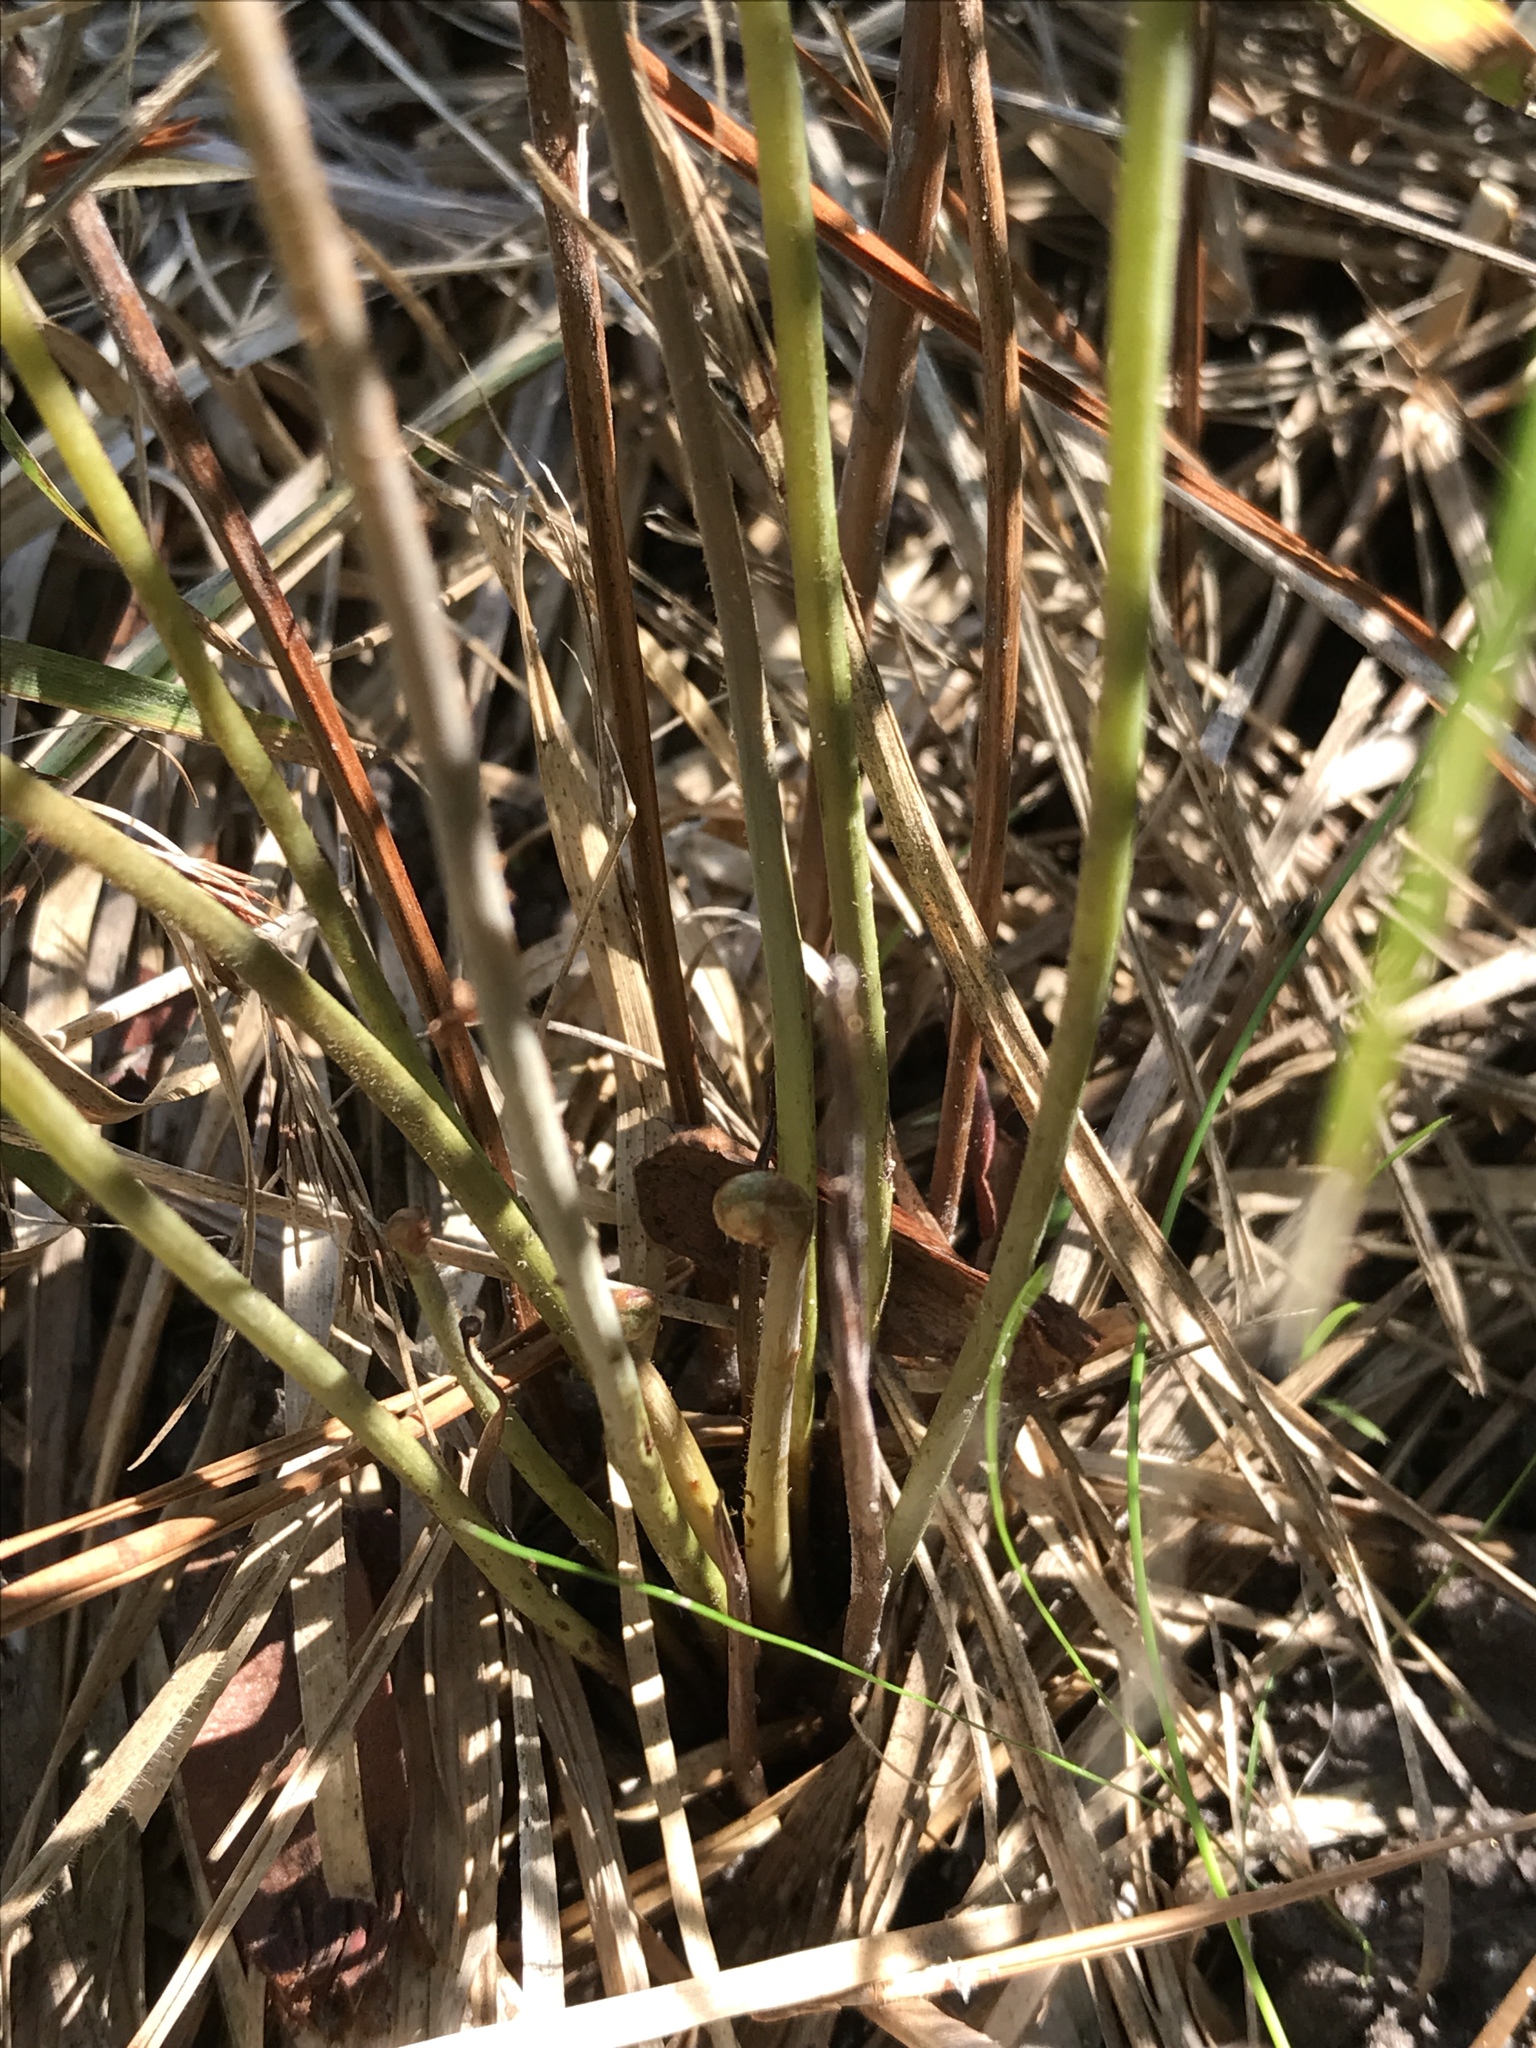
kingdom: Plantae
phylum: Tracheophyta
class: Polypodiopsida
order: Osmundales
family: Osmundaceae
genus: Osmunda
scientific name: Osmunda spectabilis
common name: American royal fern
